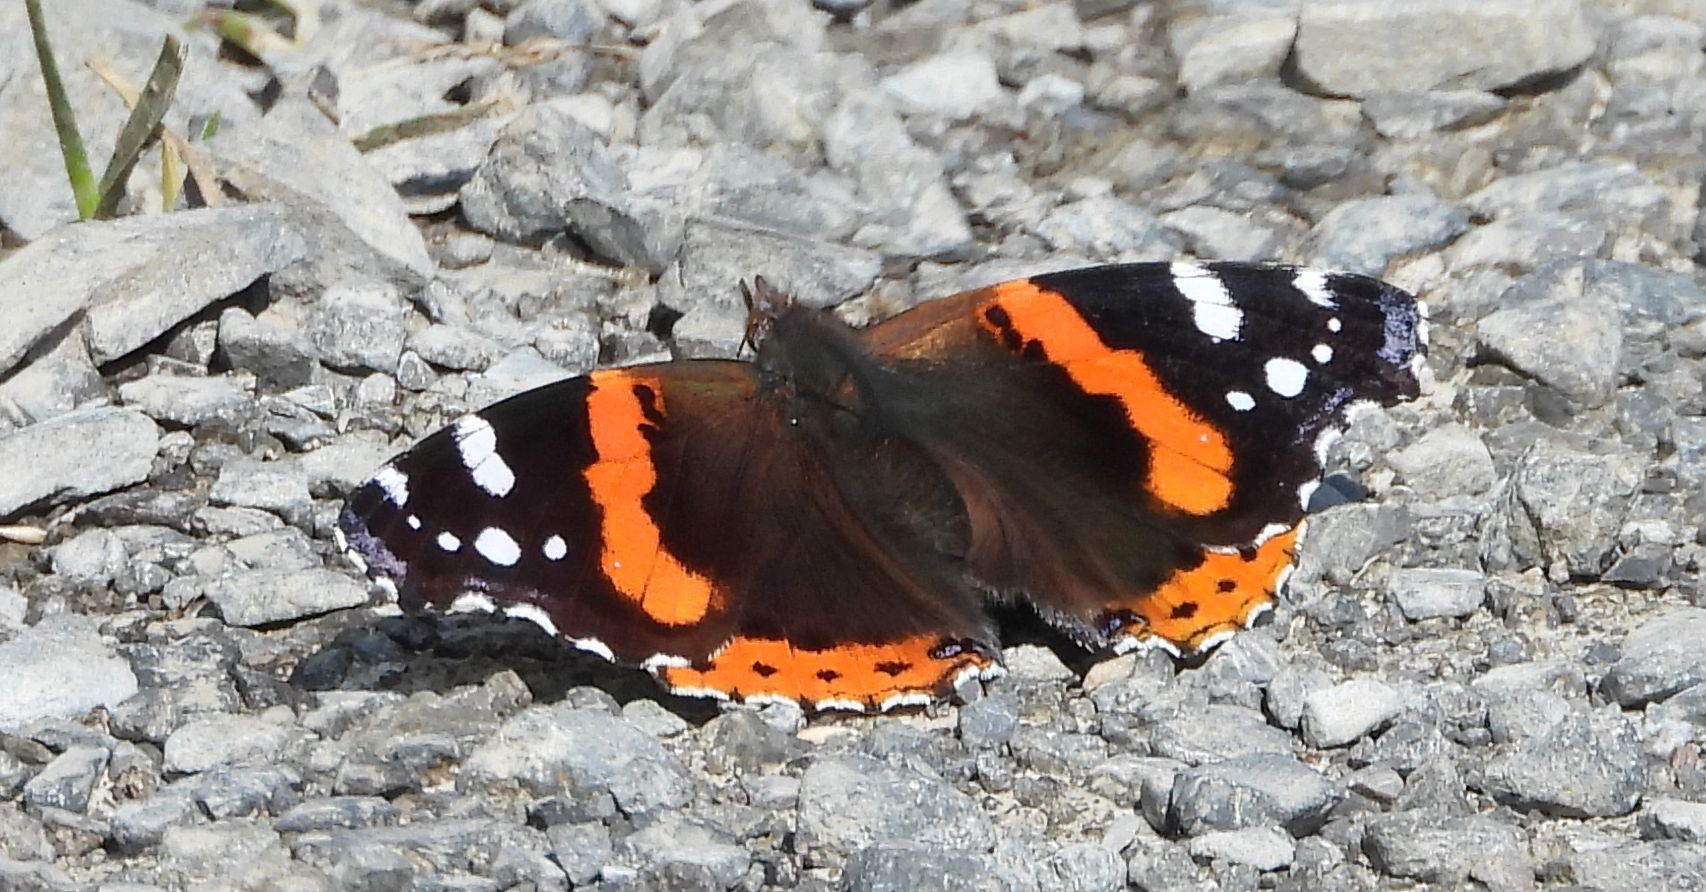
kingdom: Animalia
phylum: Arthropoda
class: Insecta
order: Lepidoptera
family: Nymphalidae
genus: Vanessa
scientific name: Vanessa atalanta
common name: Red admiral
